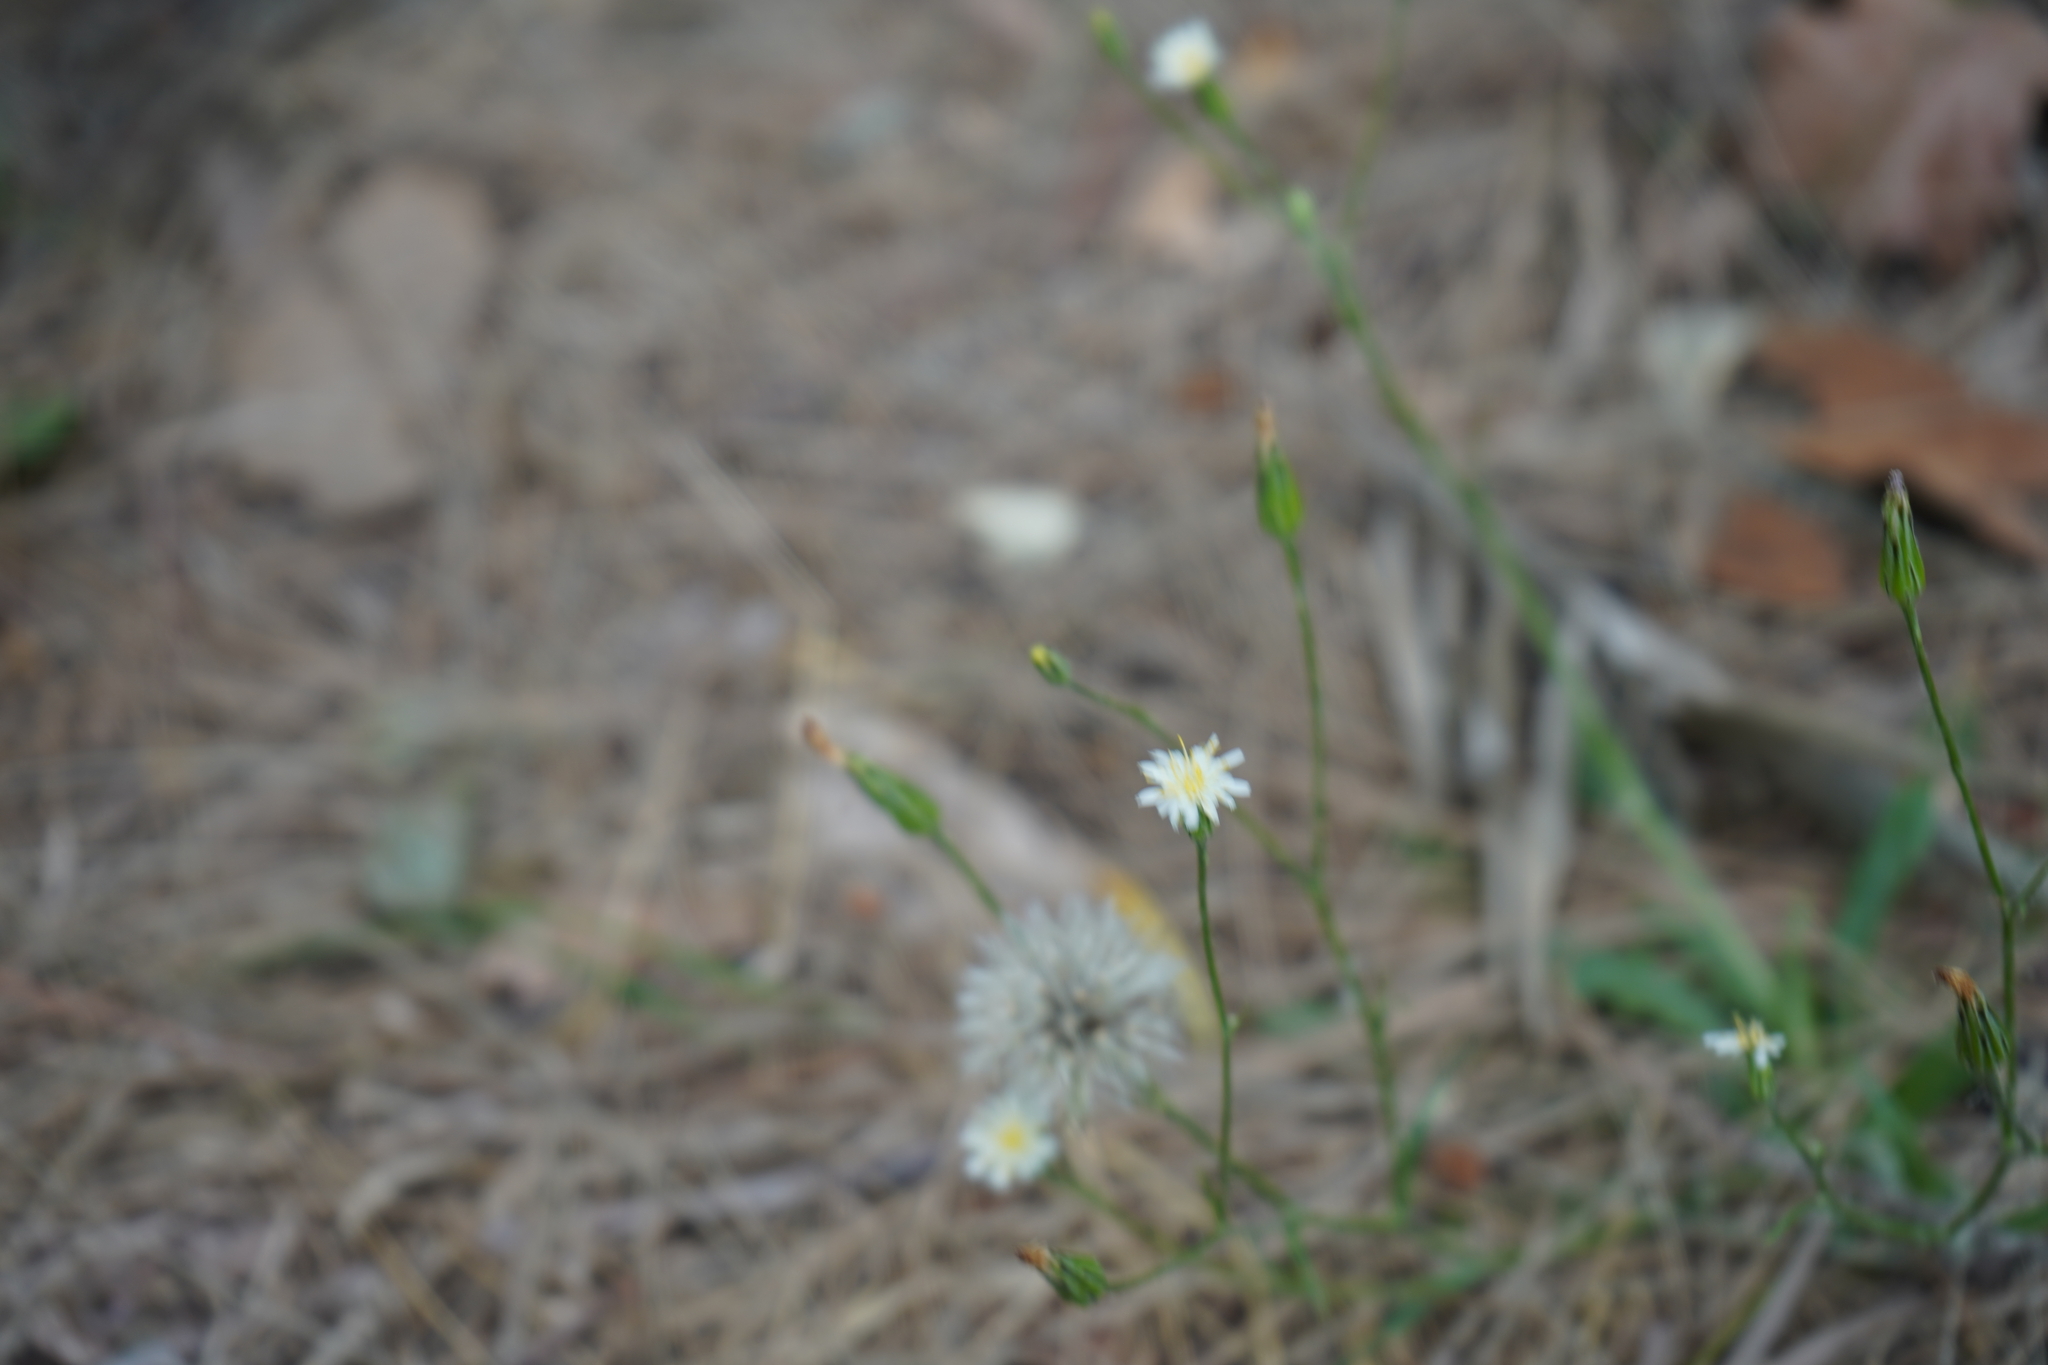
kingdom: Plantae
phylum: Tracheophyta
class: Magnoliopsida
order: Asterales
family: Asteraceae
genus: Hypochaeris
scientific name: Hypochaeris albiflora
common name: White flatweed
